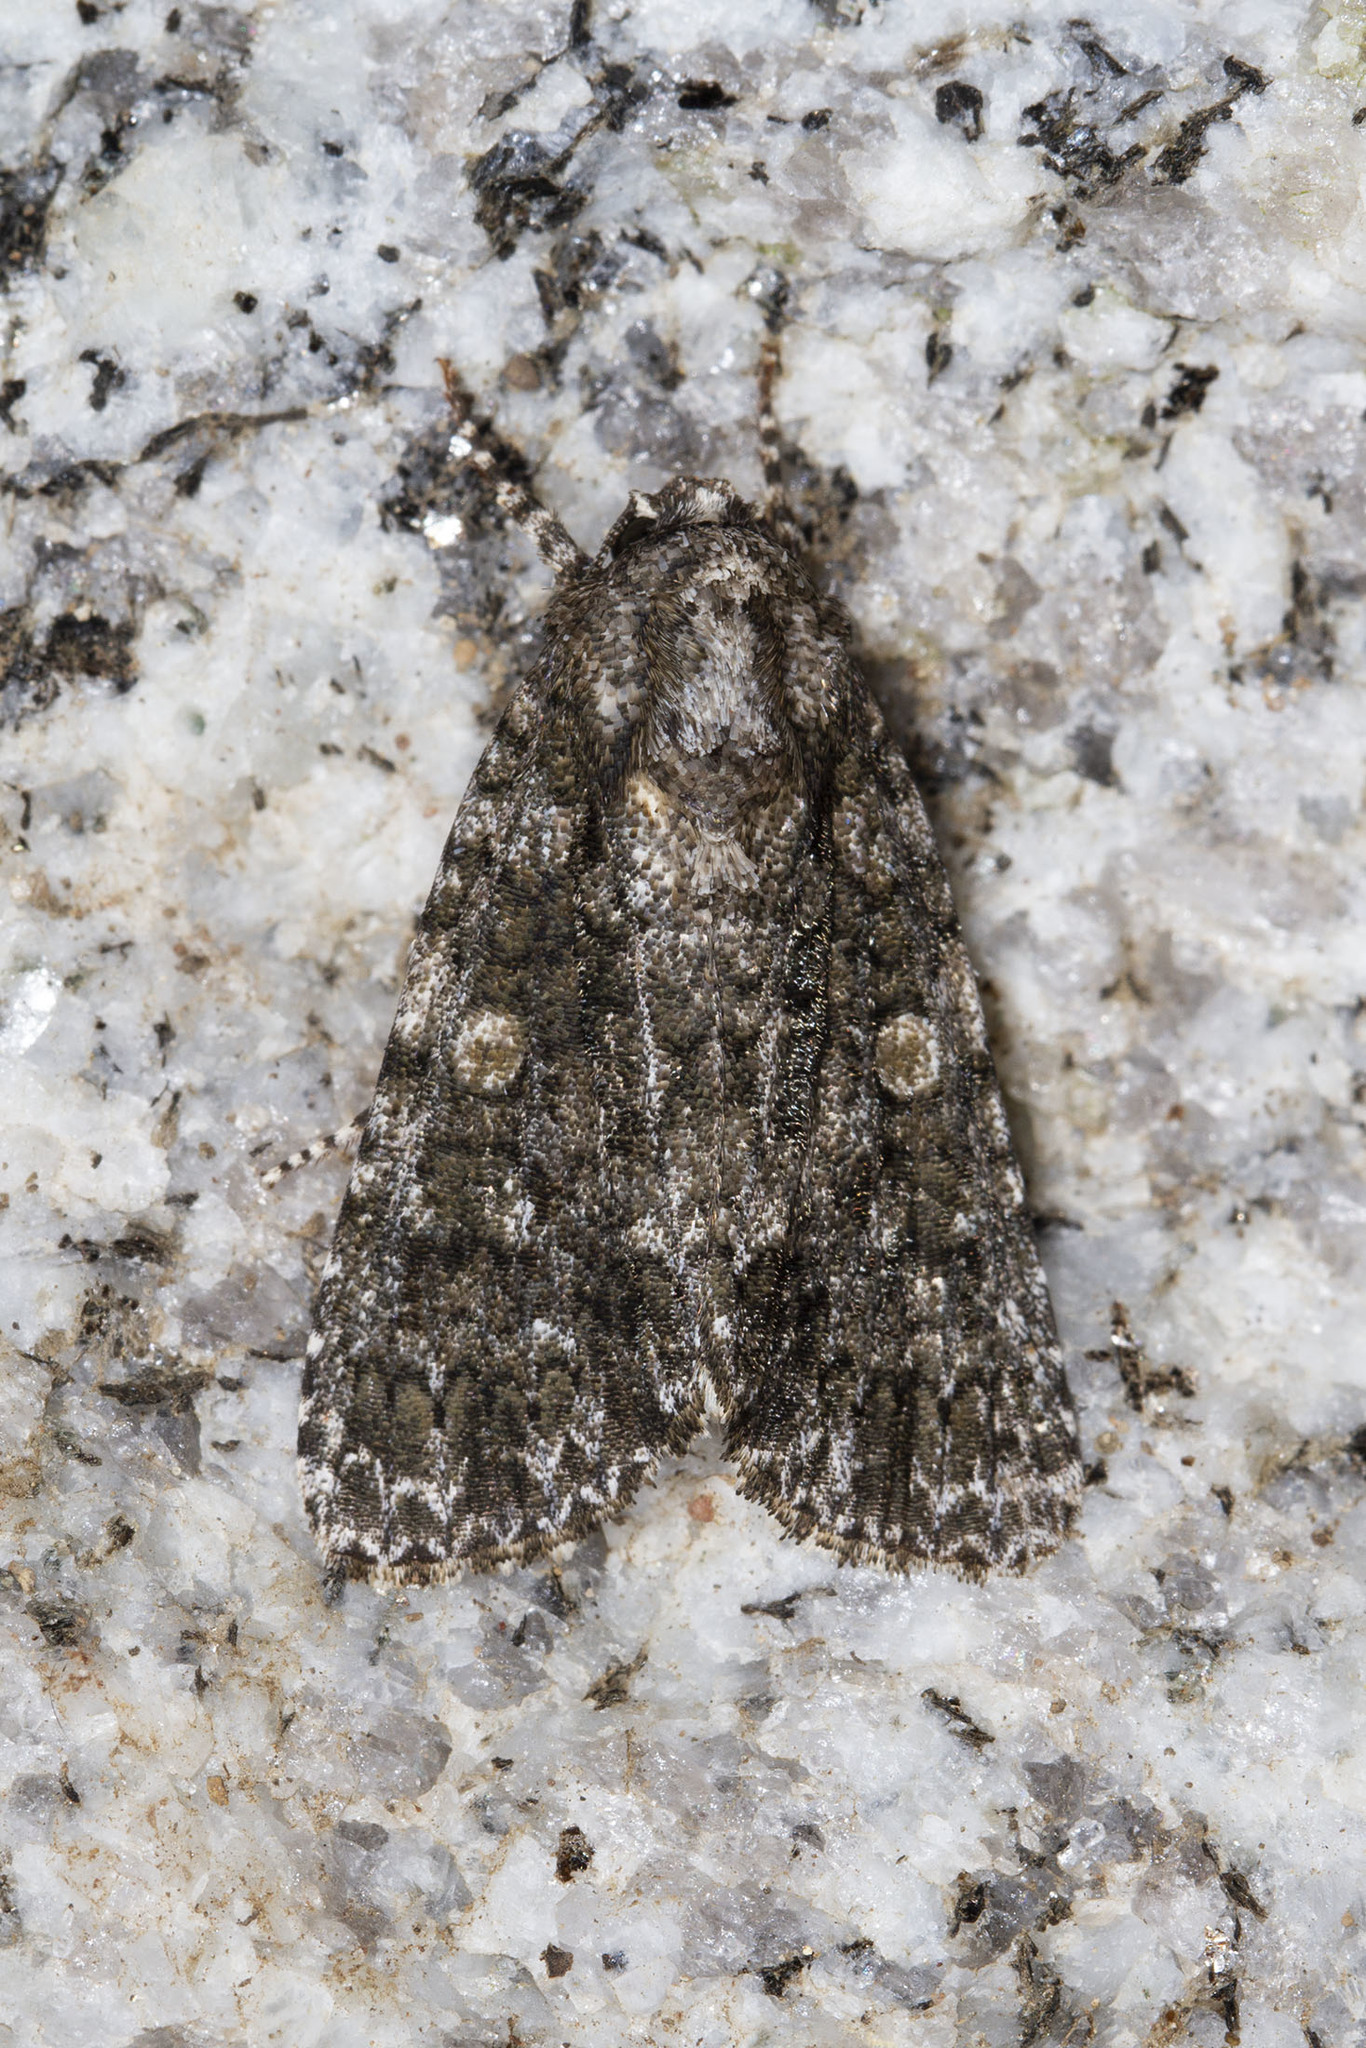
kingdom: Animalia
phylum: Arthropoda
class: Insecta
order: Lepidoptera
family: Noctuidae
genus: Acronicta
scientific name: Acronicta afflicta
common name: Afflicted dagger moth
